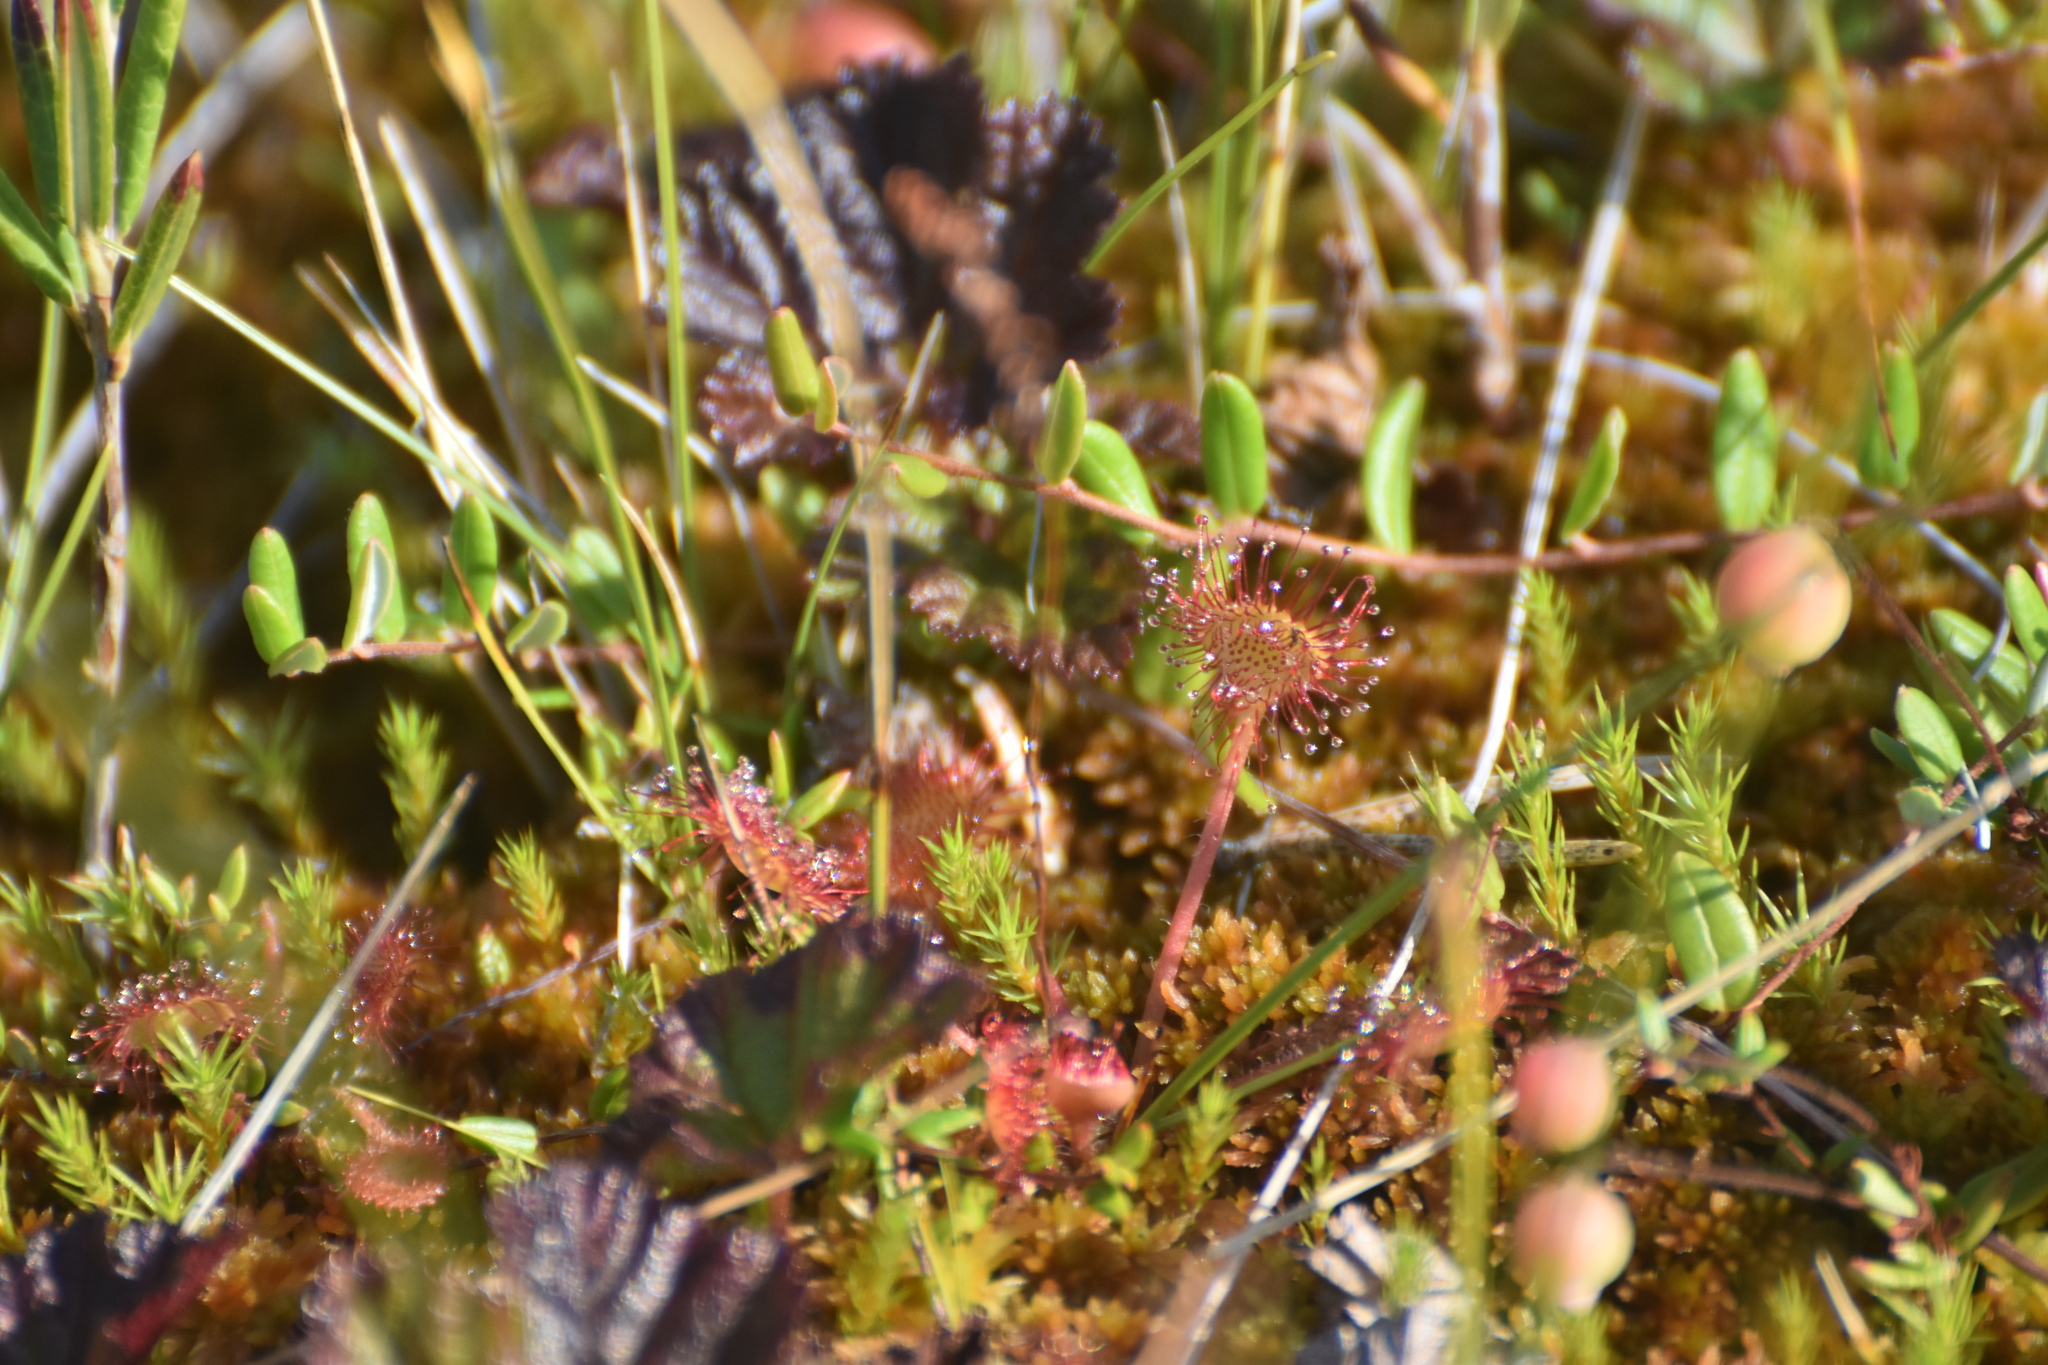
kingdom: Plantae
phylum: Tracheophyta
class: Magnoliopsida
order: Caryophyllales
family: Droseraceae
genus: Drosera
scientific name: Drosera rotundifolia
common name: Round-leaved sundew
